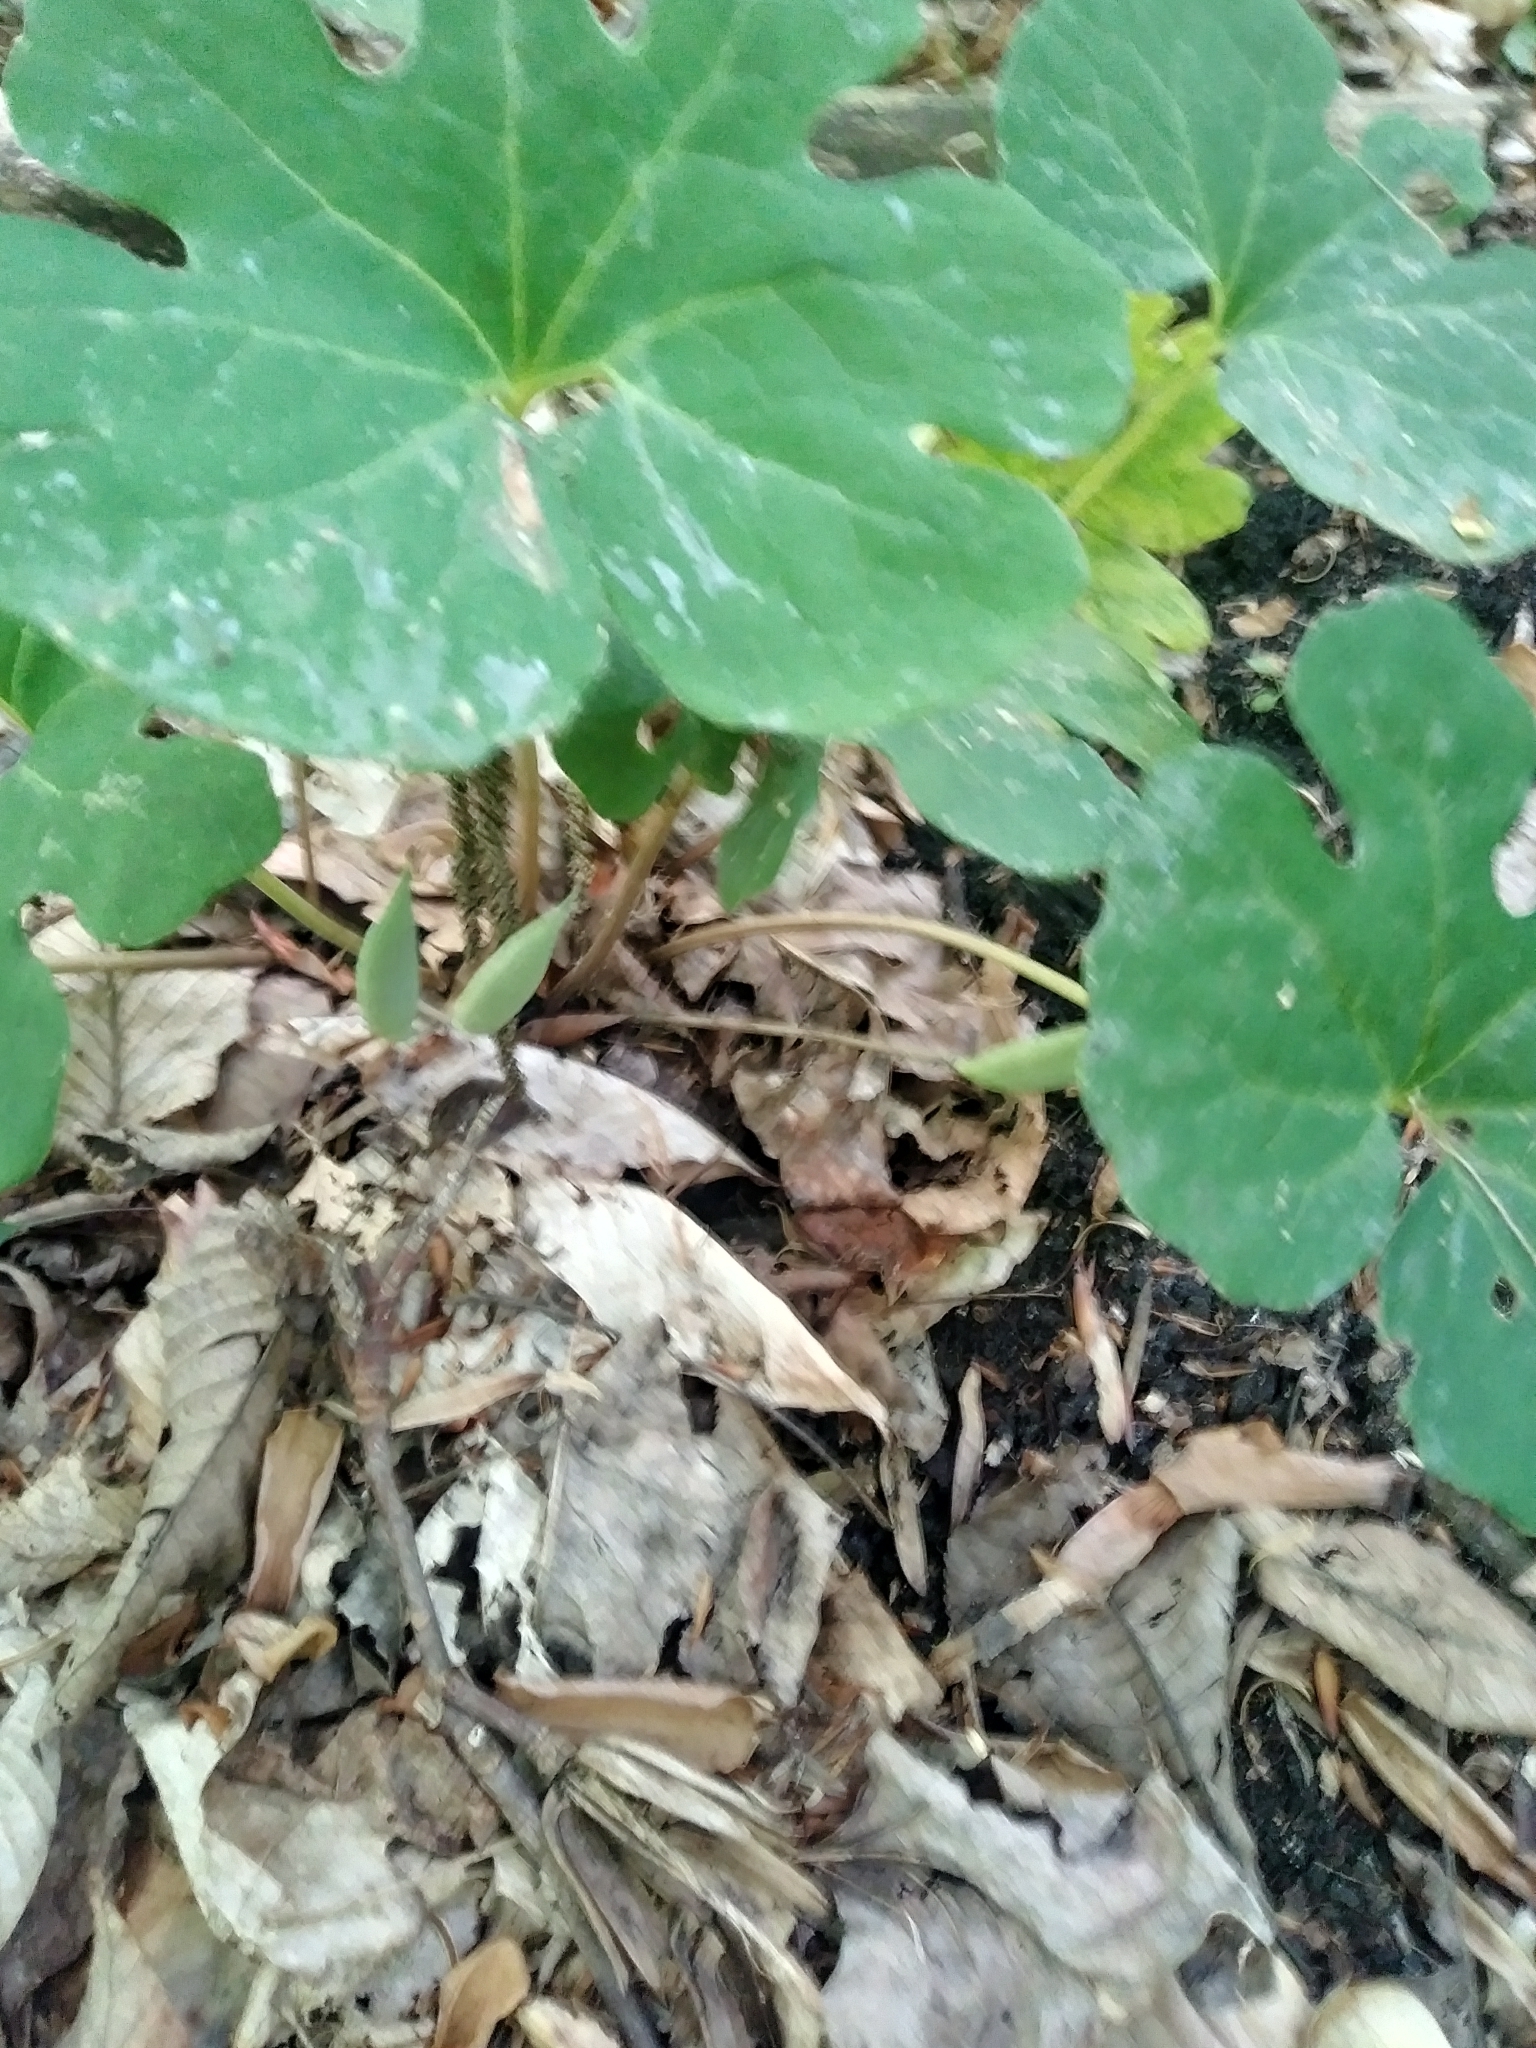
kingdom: Plantae
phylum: Tracheophyta
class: Magnoliopsida
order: Ranunculales
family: Papaveraceae
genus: Sanguinaria
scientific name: Sanguinaria canadensis
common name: Bloodroot
